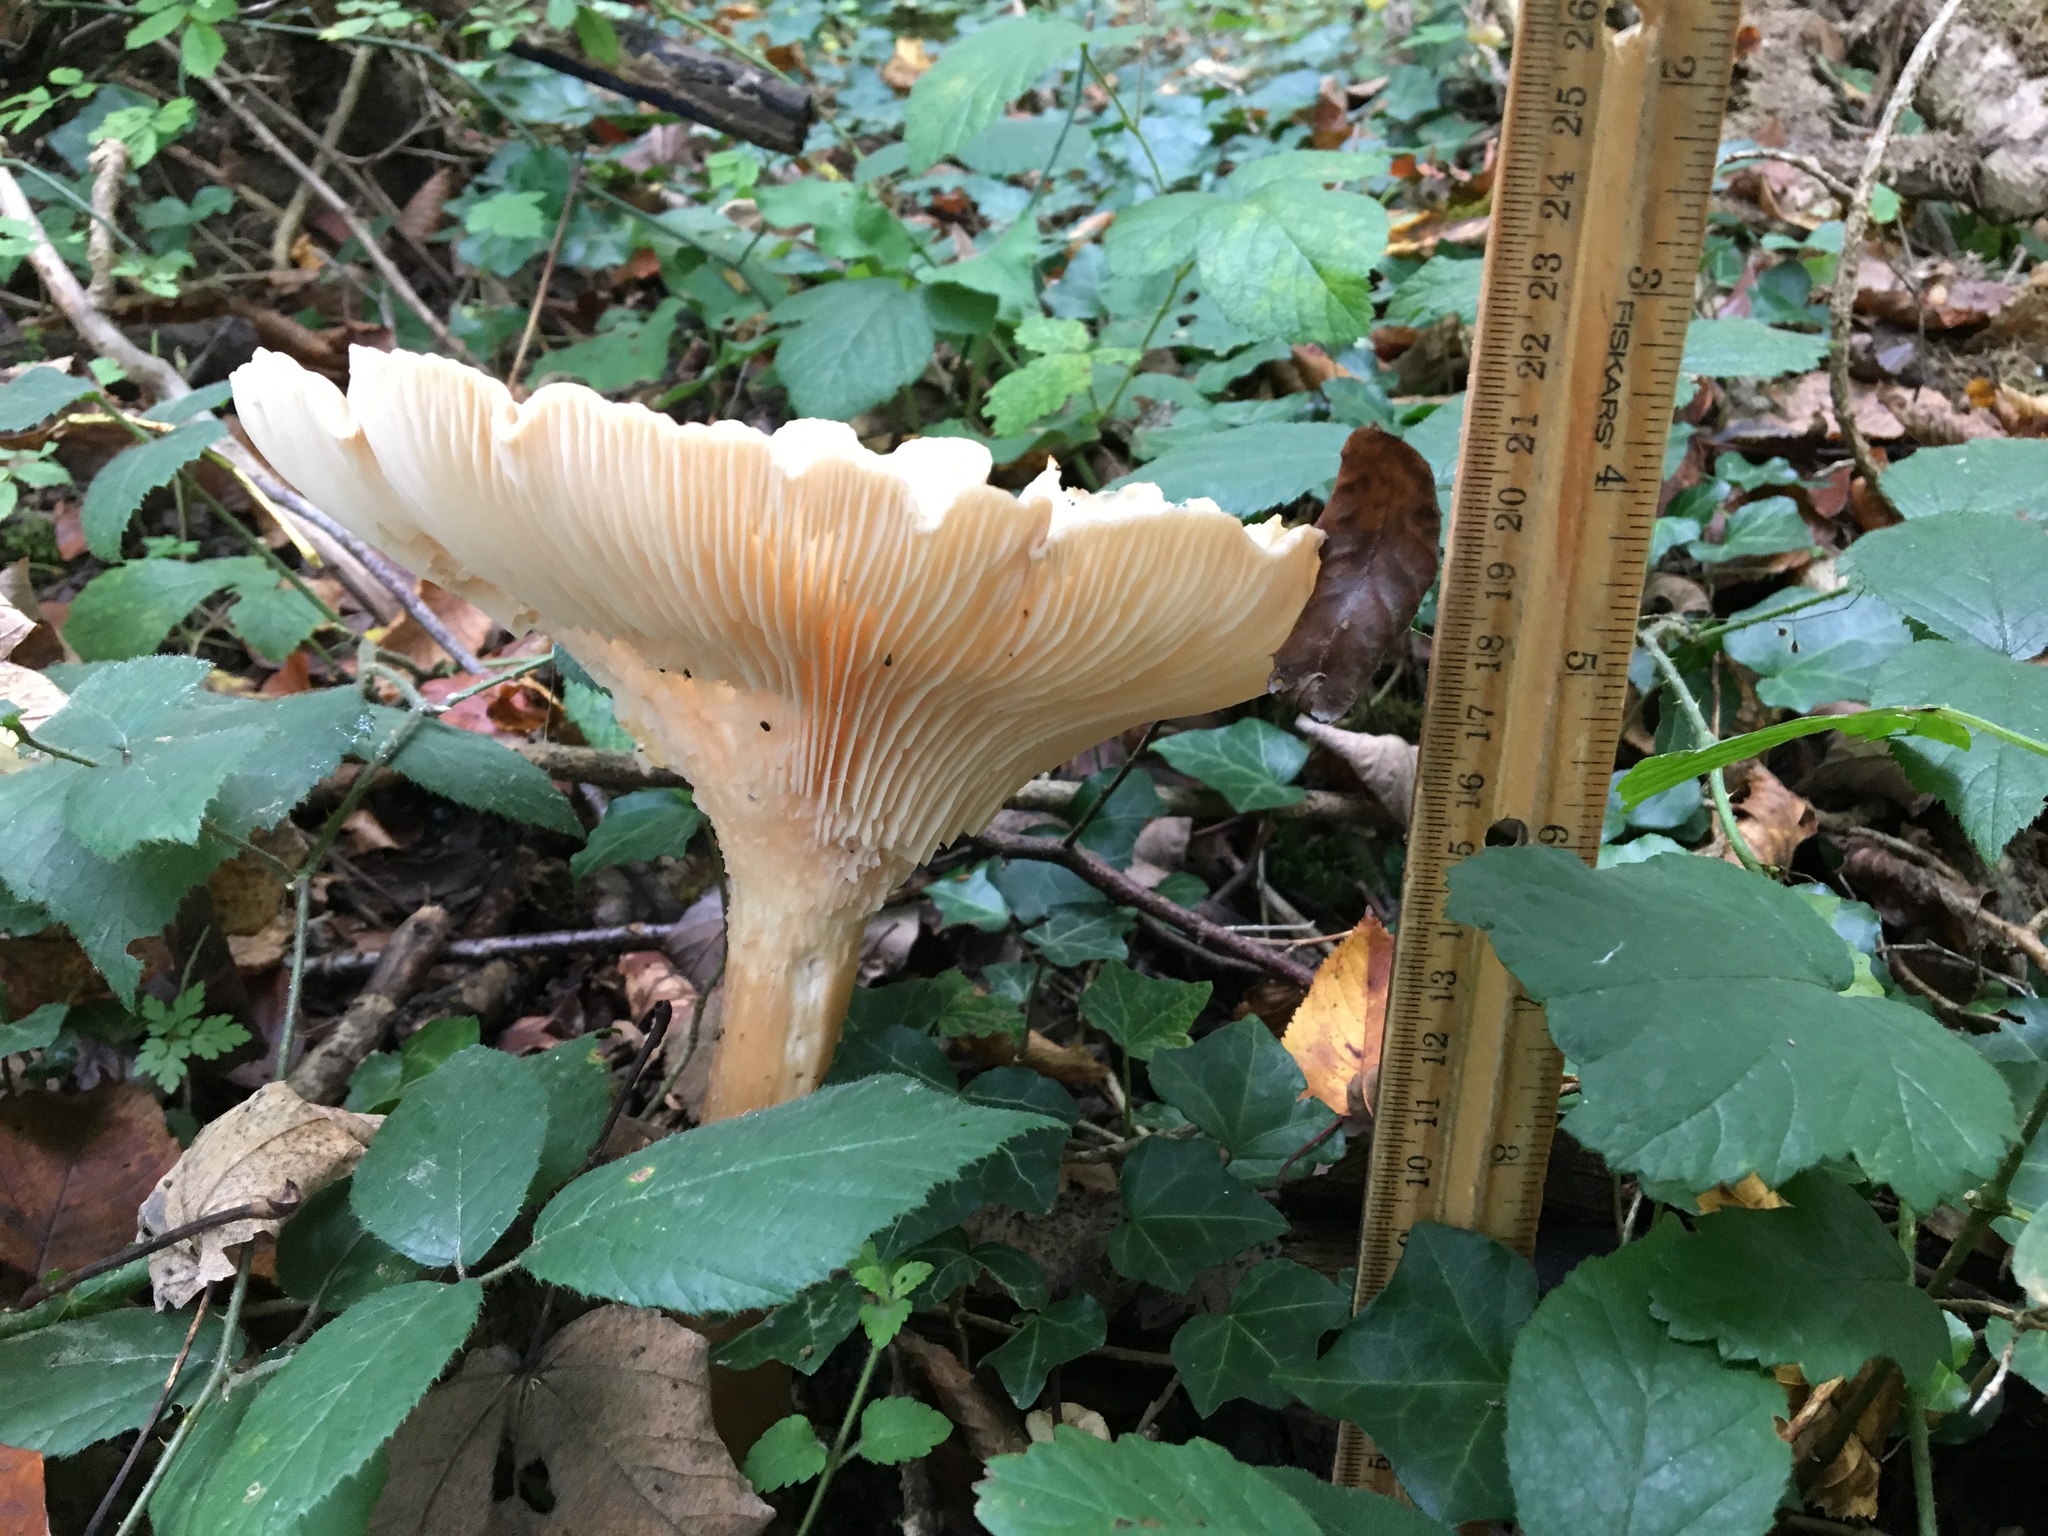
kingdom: Fungi
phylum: Basidiomycota
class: Agaricomycetes
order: Agaricales
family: Tricholomataceae
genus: Infundibulicybe
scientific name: Infundibulicybe gibba
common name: Common funnel
